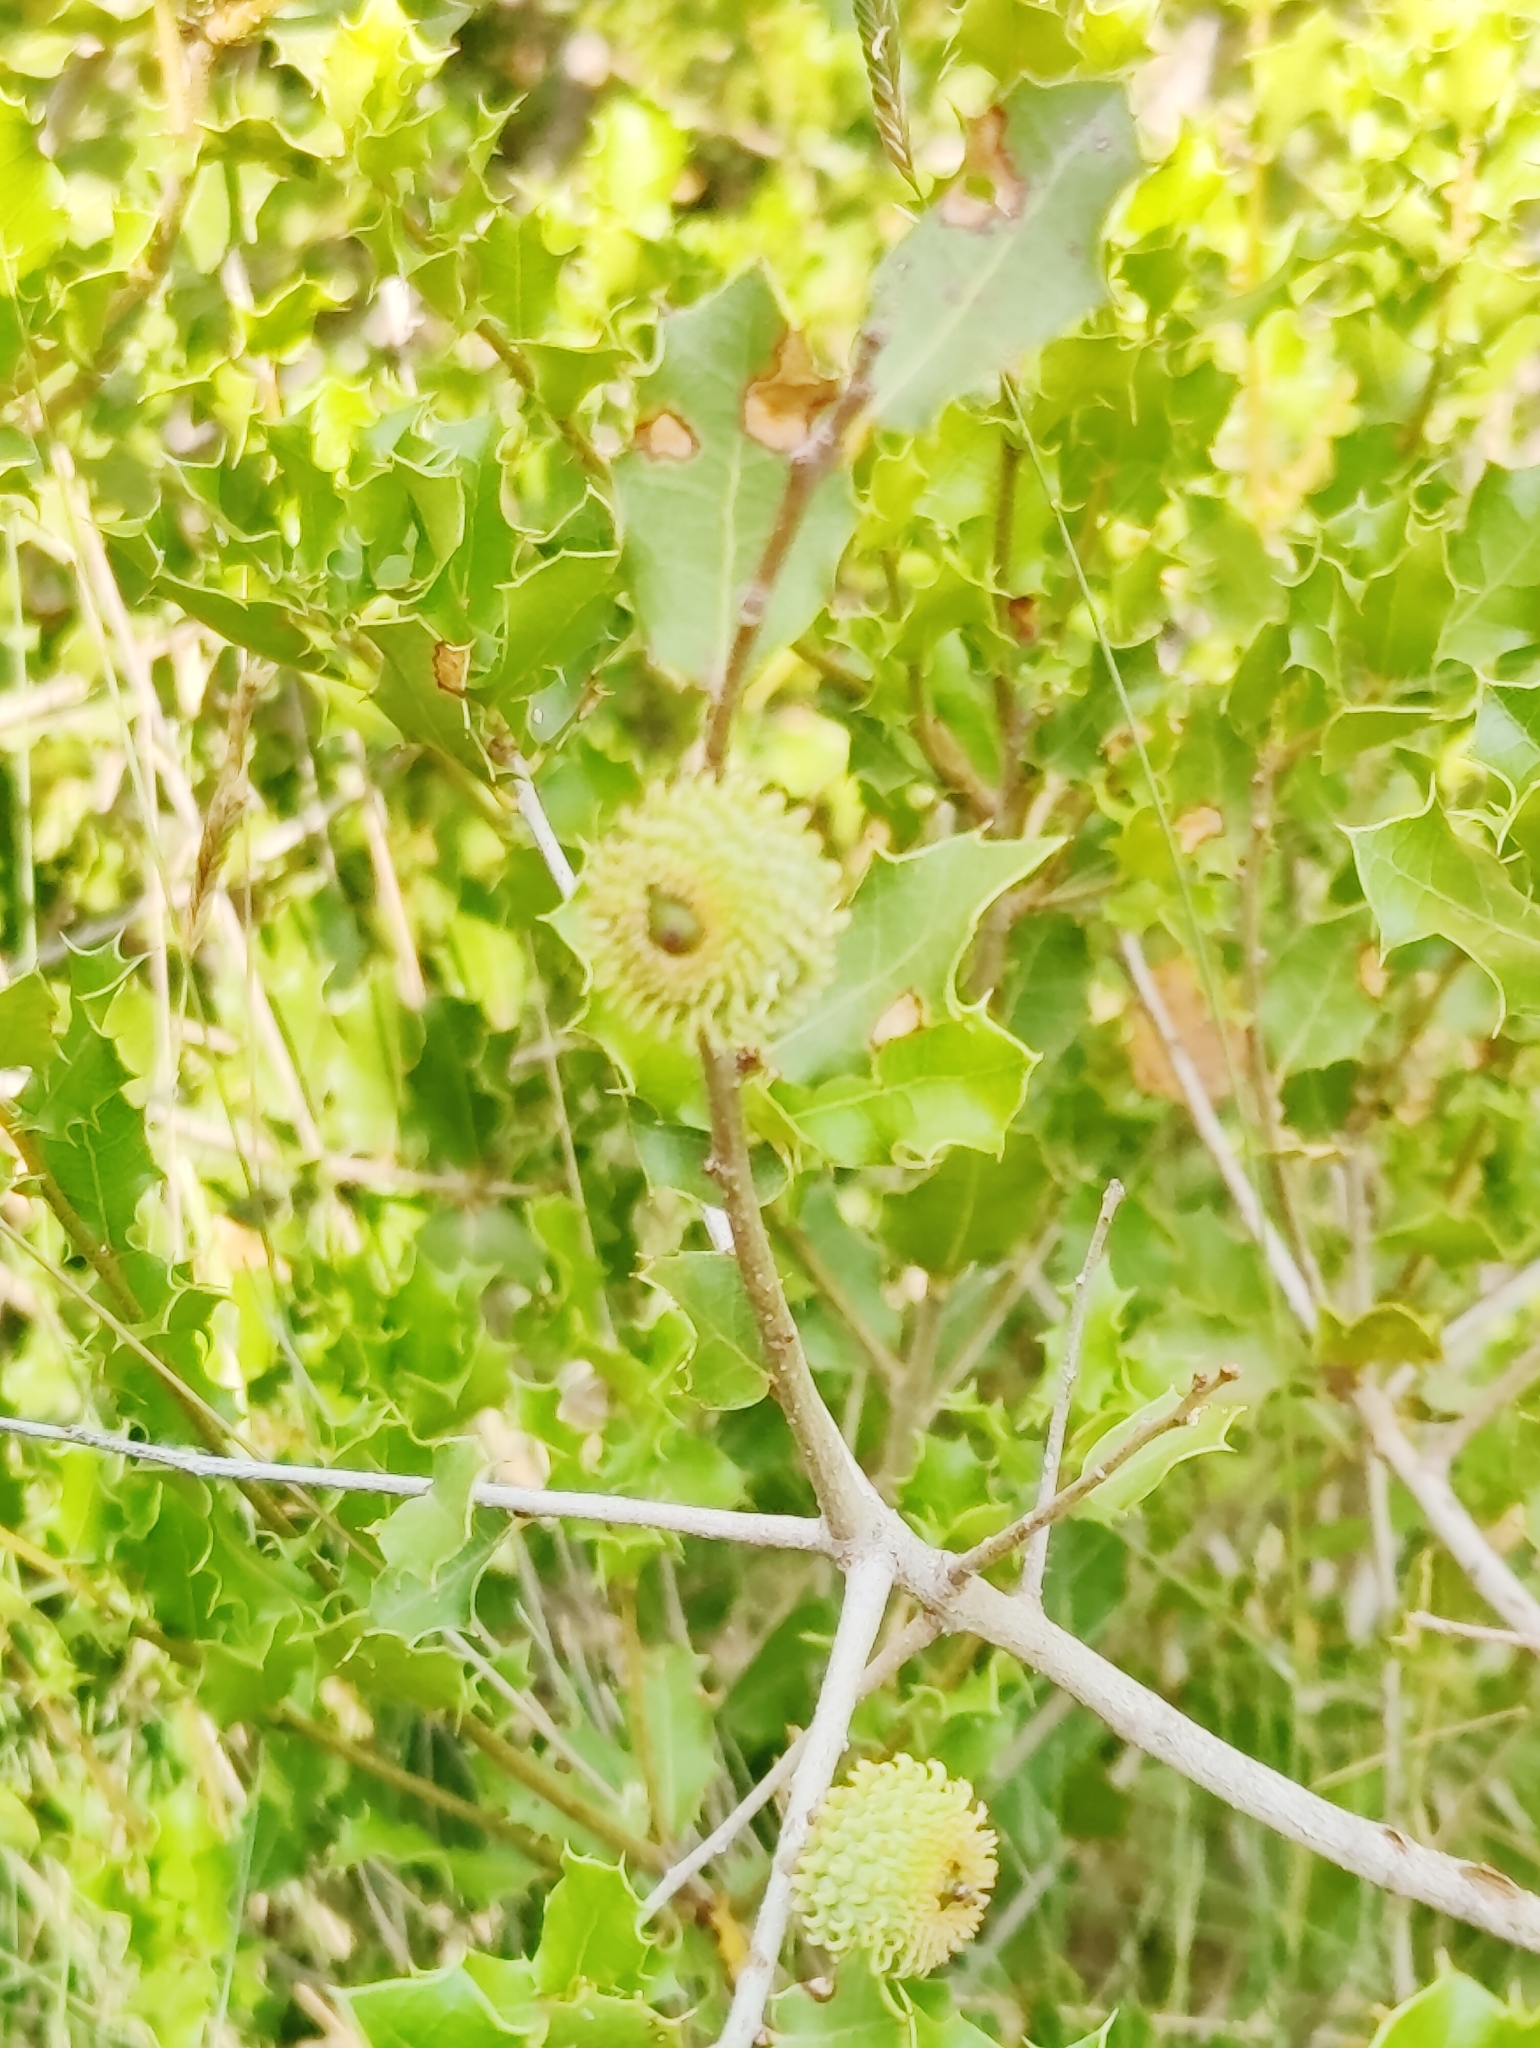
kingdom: Plantae
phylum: Tracheophyta
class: Magnoliopsida
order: Fagales
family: Fagaceae
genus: Quercus
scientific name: Quercus coccifera
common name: Kermes oak
